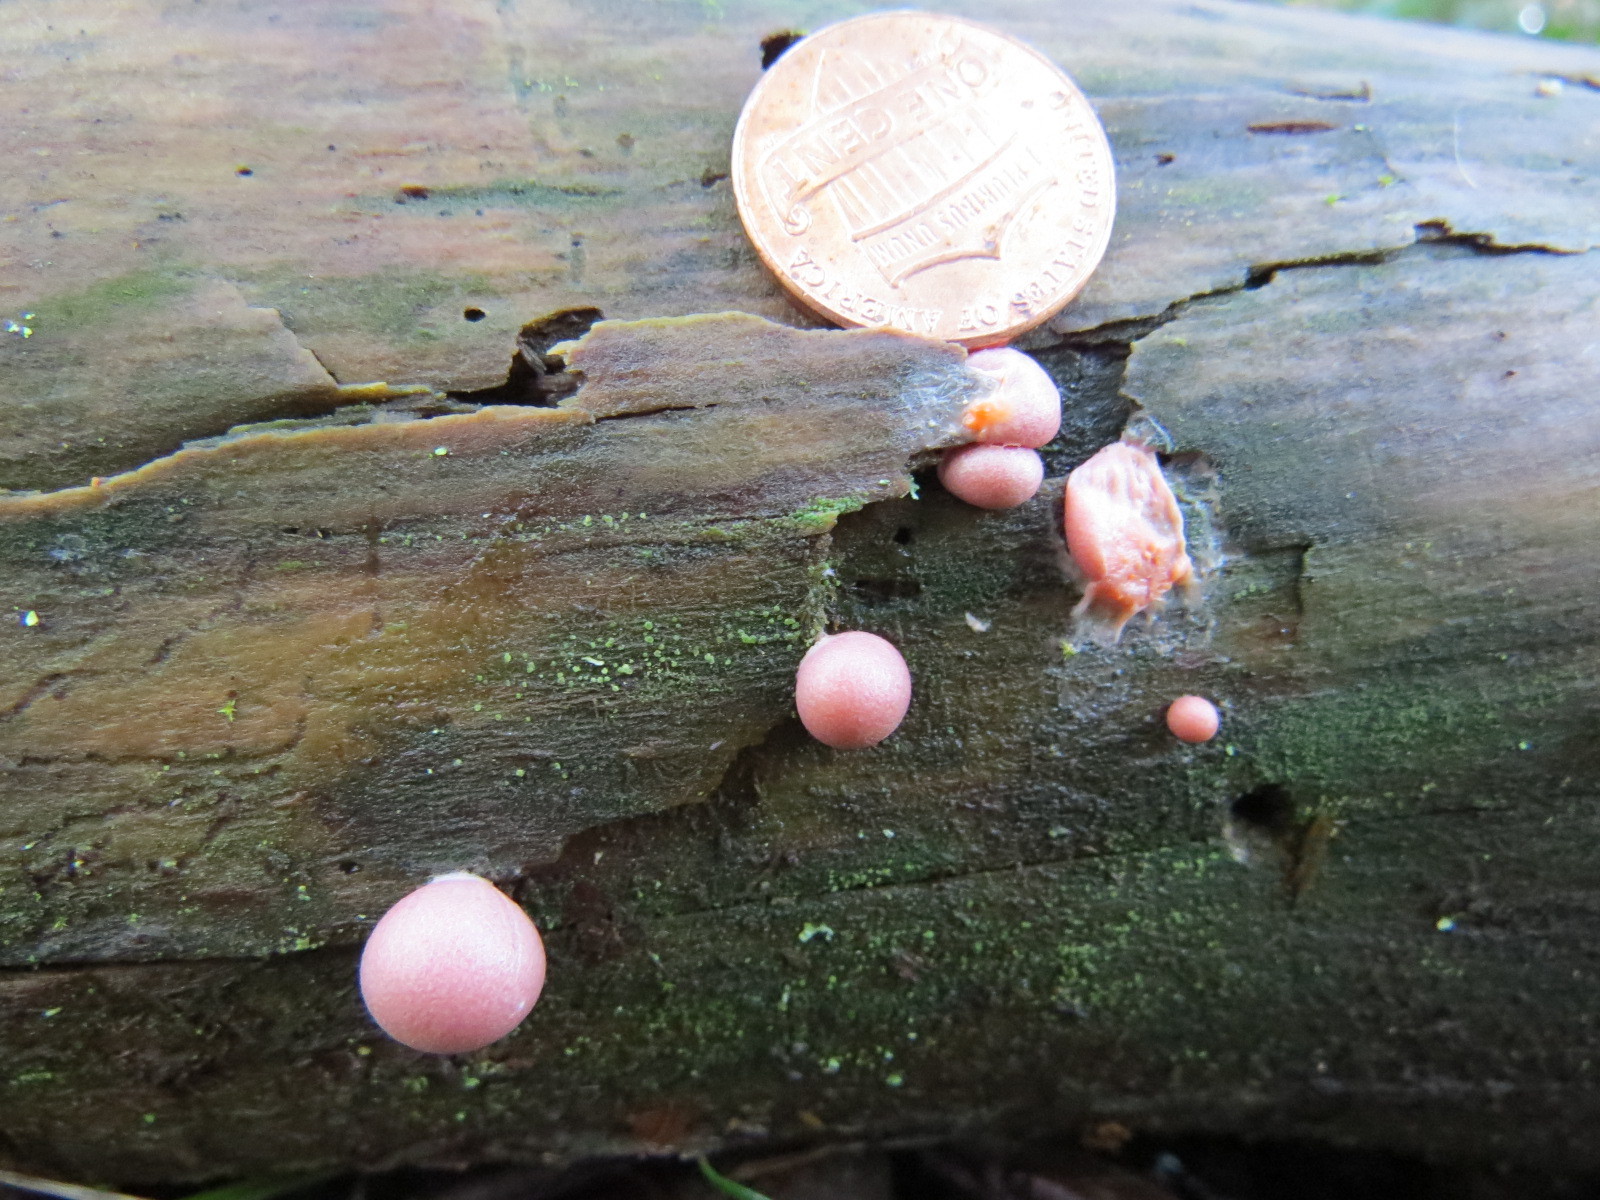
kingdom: Protozoa
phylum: Mycetozoa
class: Myxomycetes
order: Cribrariales
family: Tubiferaceae
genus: Lycogala
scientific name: Lycogala epidendrum
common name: Wolf's milk
